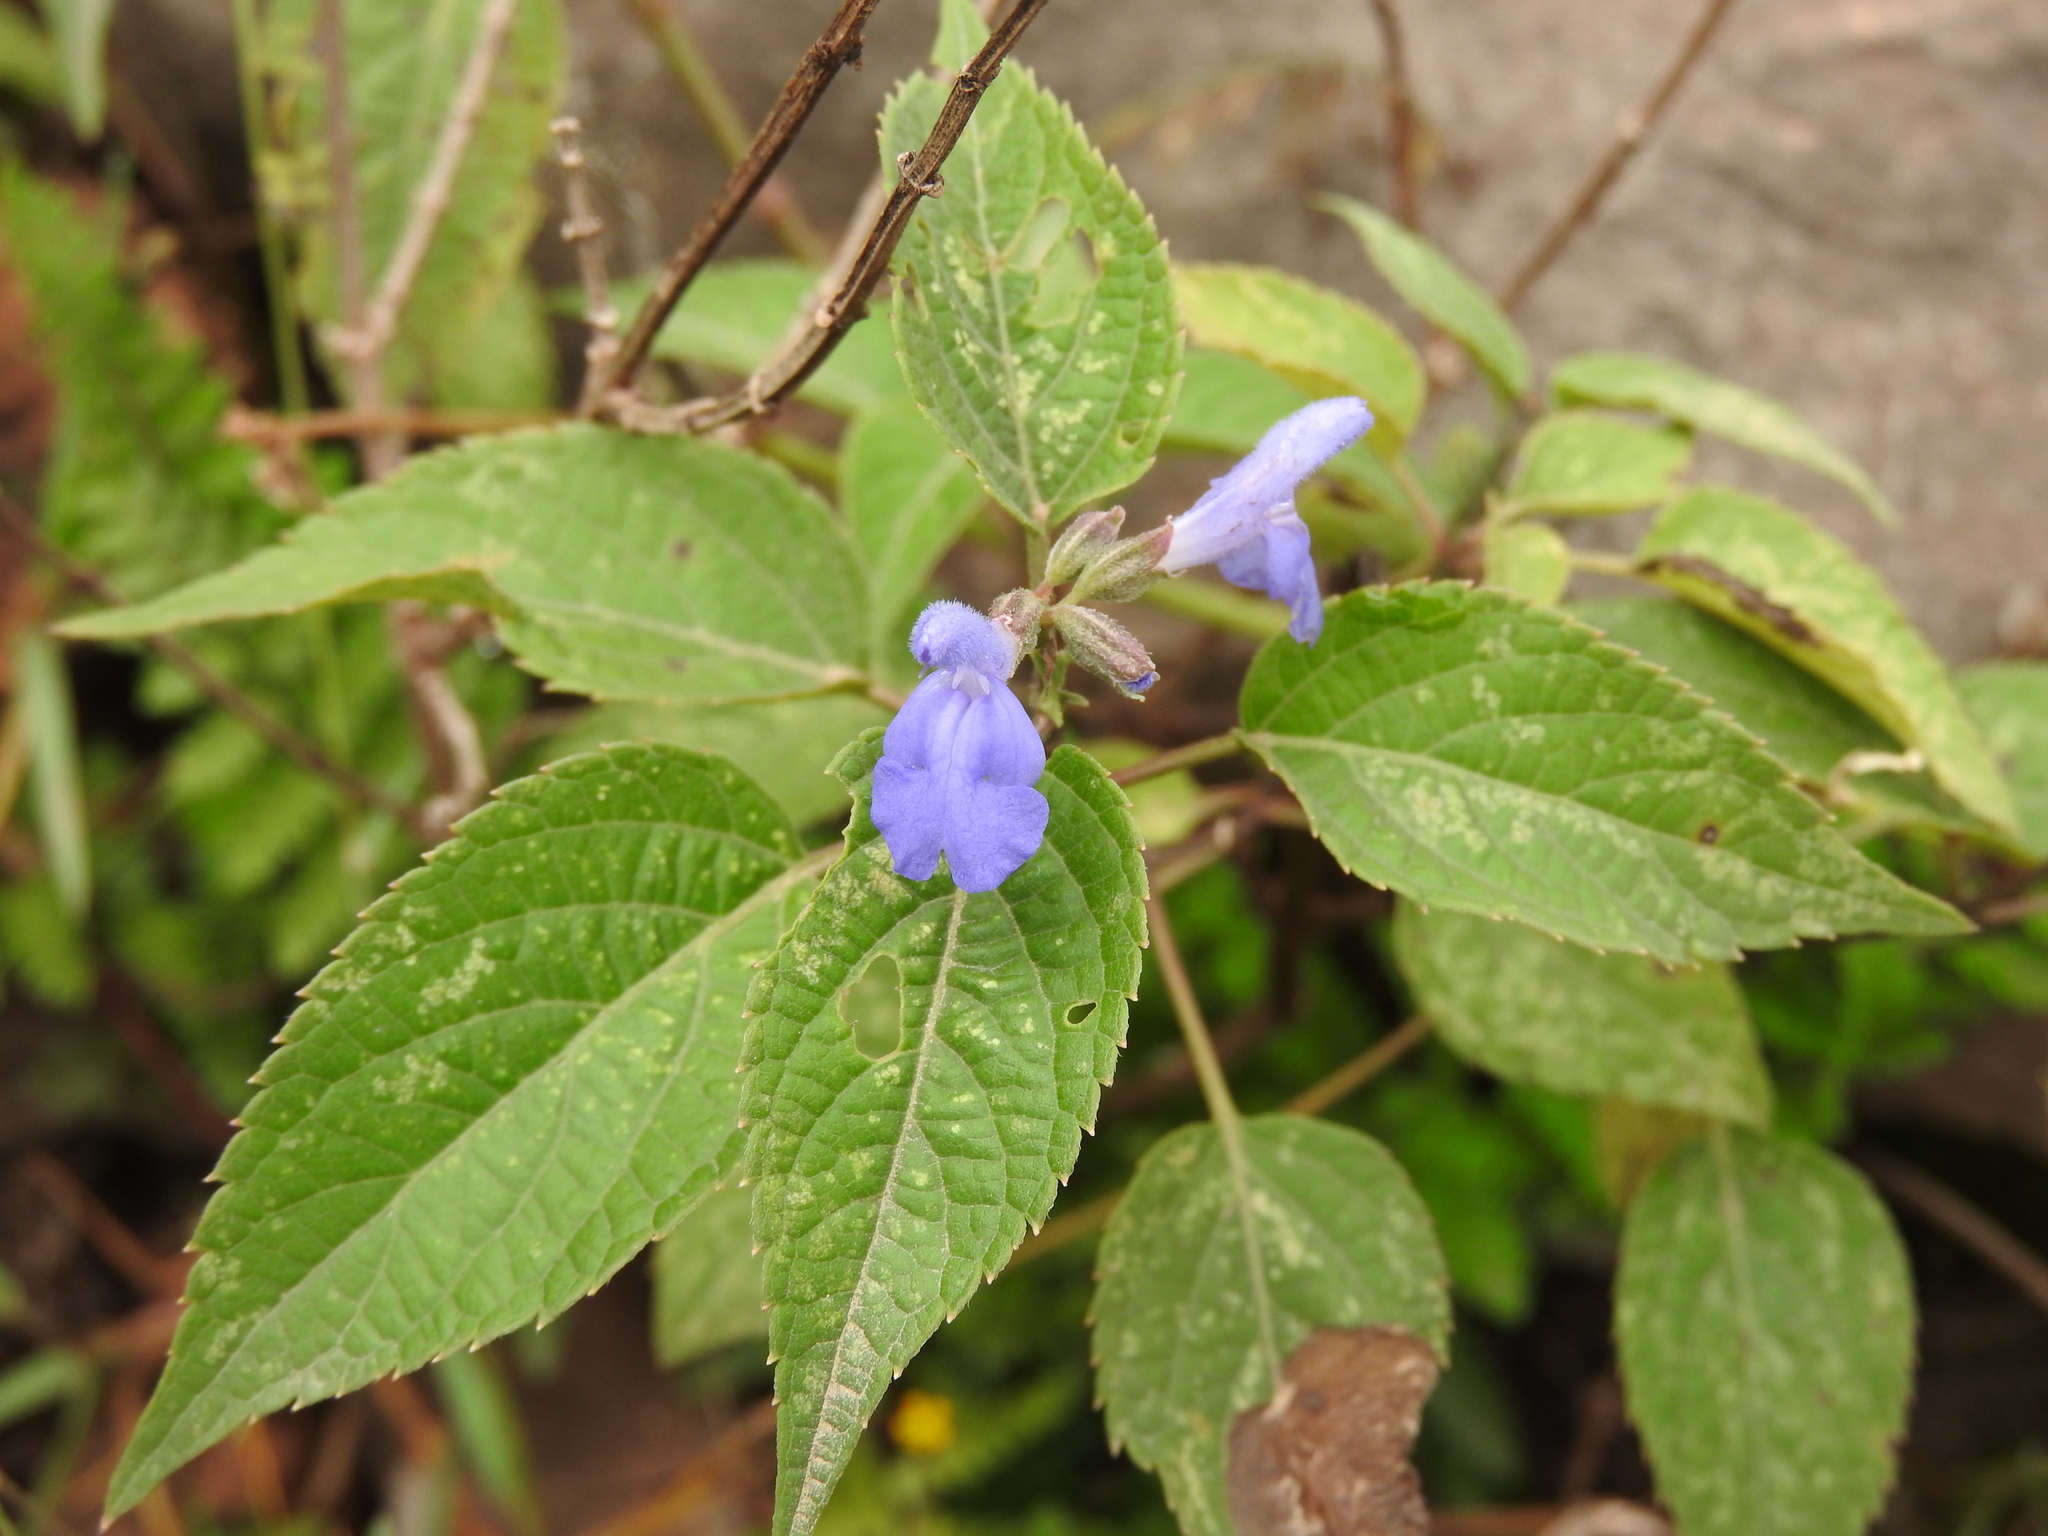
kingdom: Plantae
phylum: Tracheophyta
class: Magnoliopsida
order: Lamiales
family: Lamiaceae
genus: Salvia
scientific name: Salvia connivens
